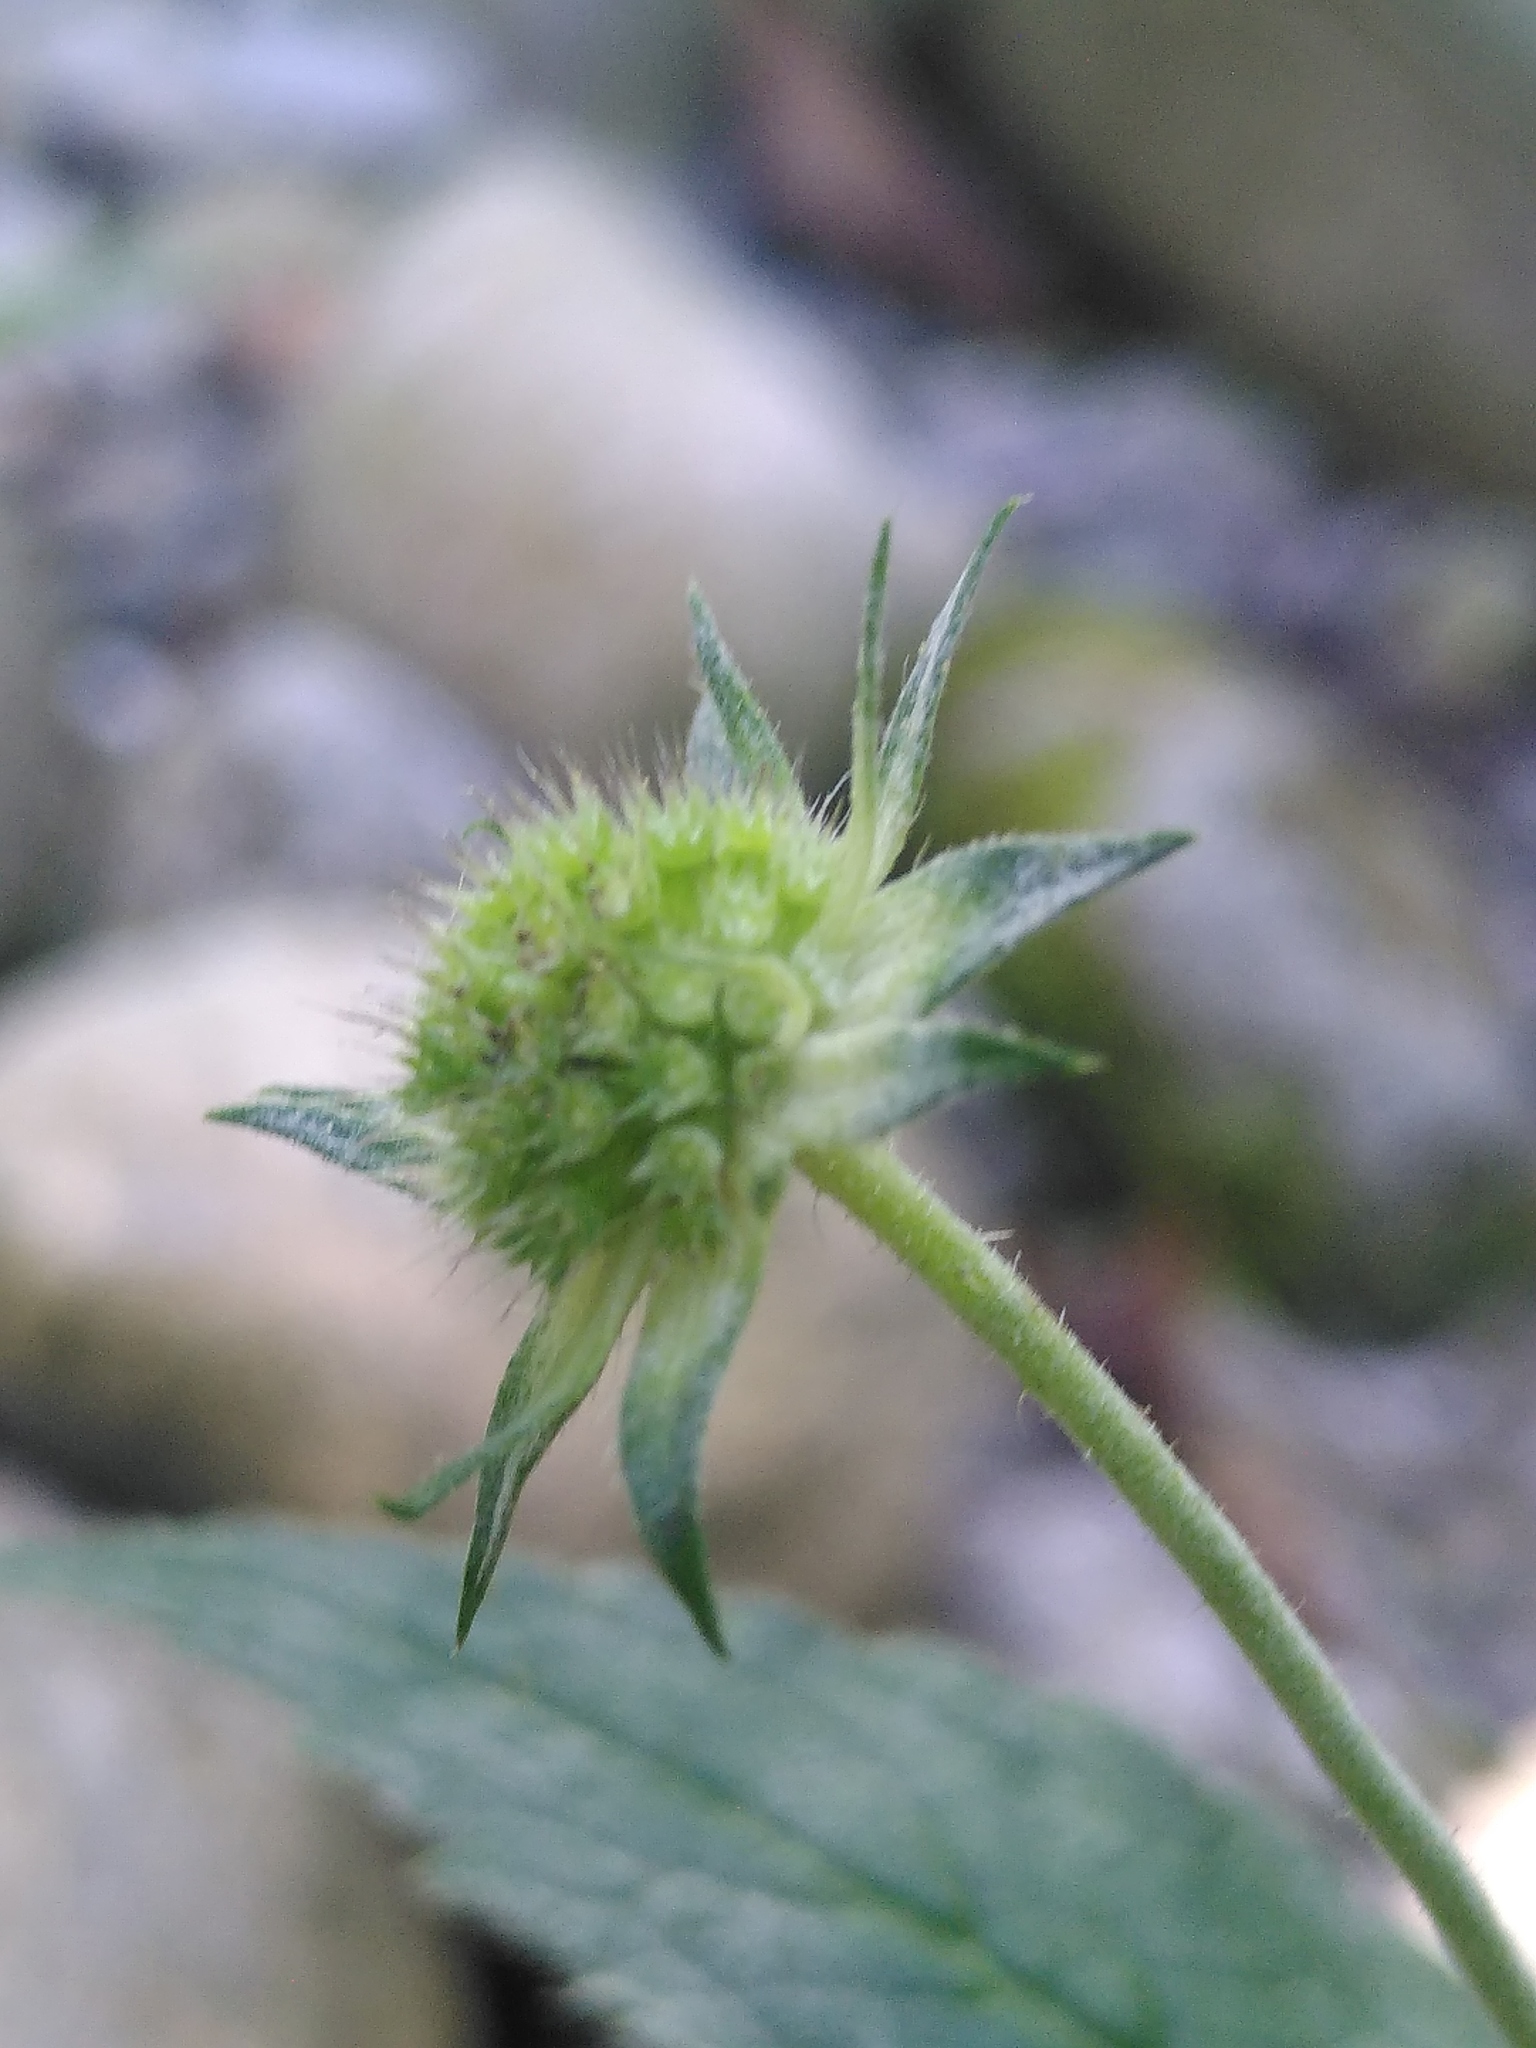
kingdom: Plantae
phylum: Tracheophyta
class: Magnoliopsida
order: Dipsacales
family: Caprifoliaceae
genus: Knautia
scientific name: Knautia drymeia
